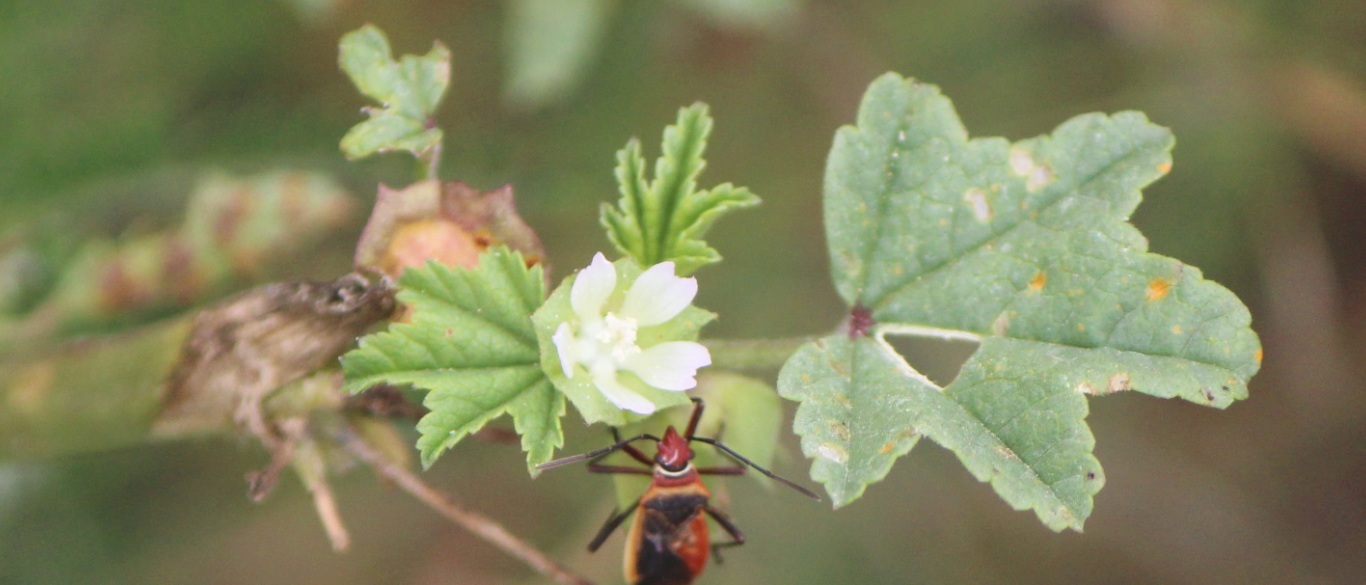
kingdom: Plantae
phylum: Tracheophyta
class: Magnoliopsida
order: Malvales
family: Malvaceae
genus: Malva
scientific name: Malva parviflora
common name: Least mallow
